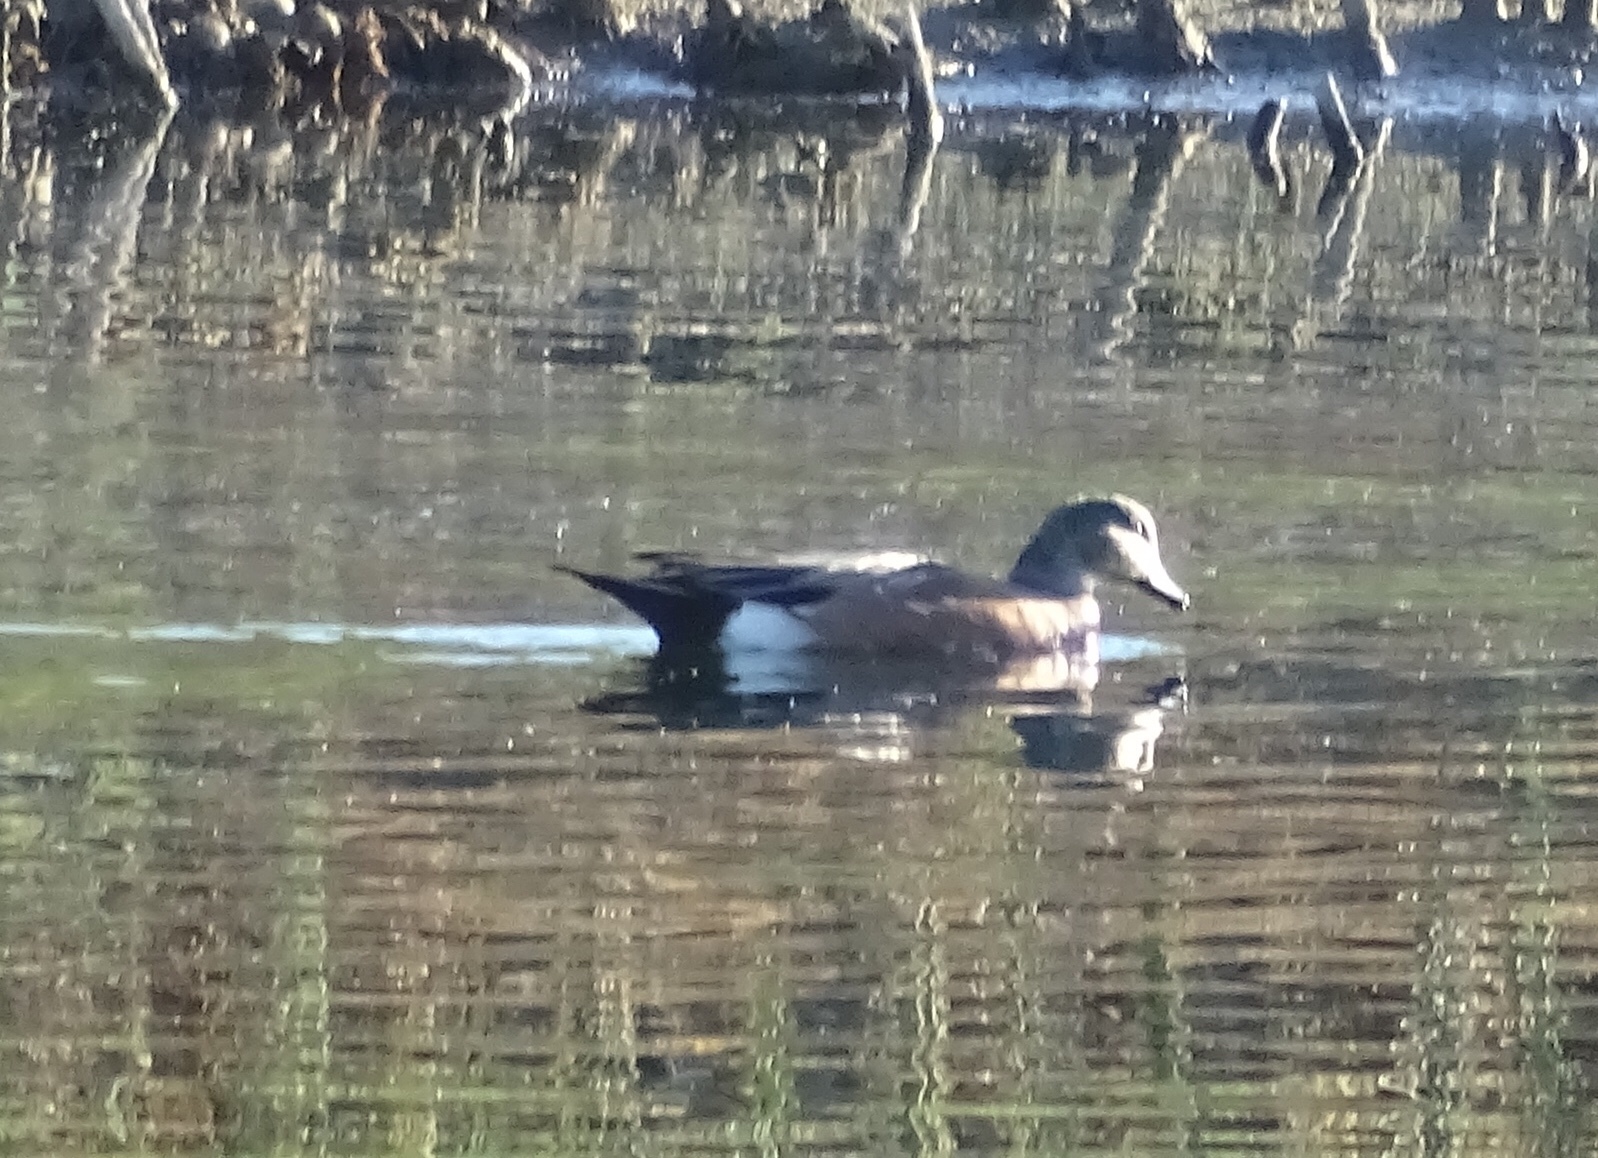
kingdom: Animalia
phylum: Chordata
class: Aves
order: Anseriformes
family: Anatidae
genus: Mareca
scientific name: Mareca americana
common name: American wigeon
